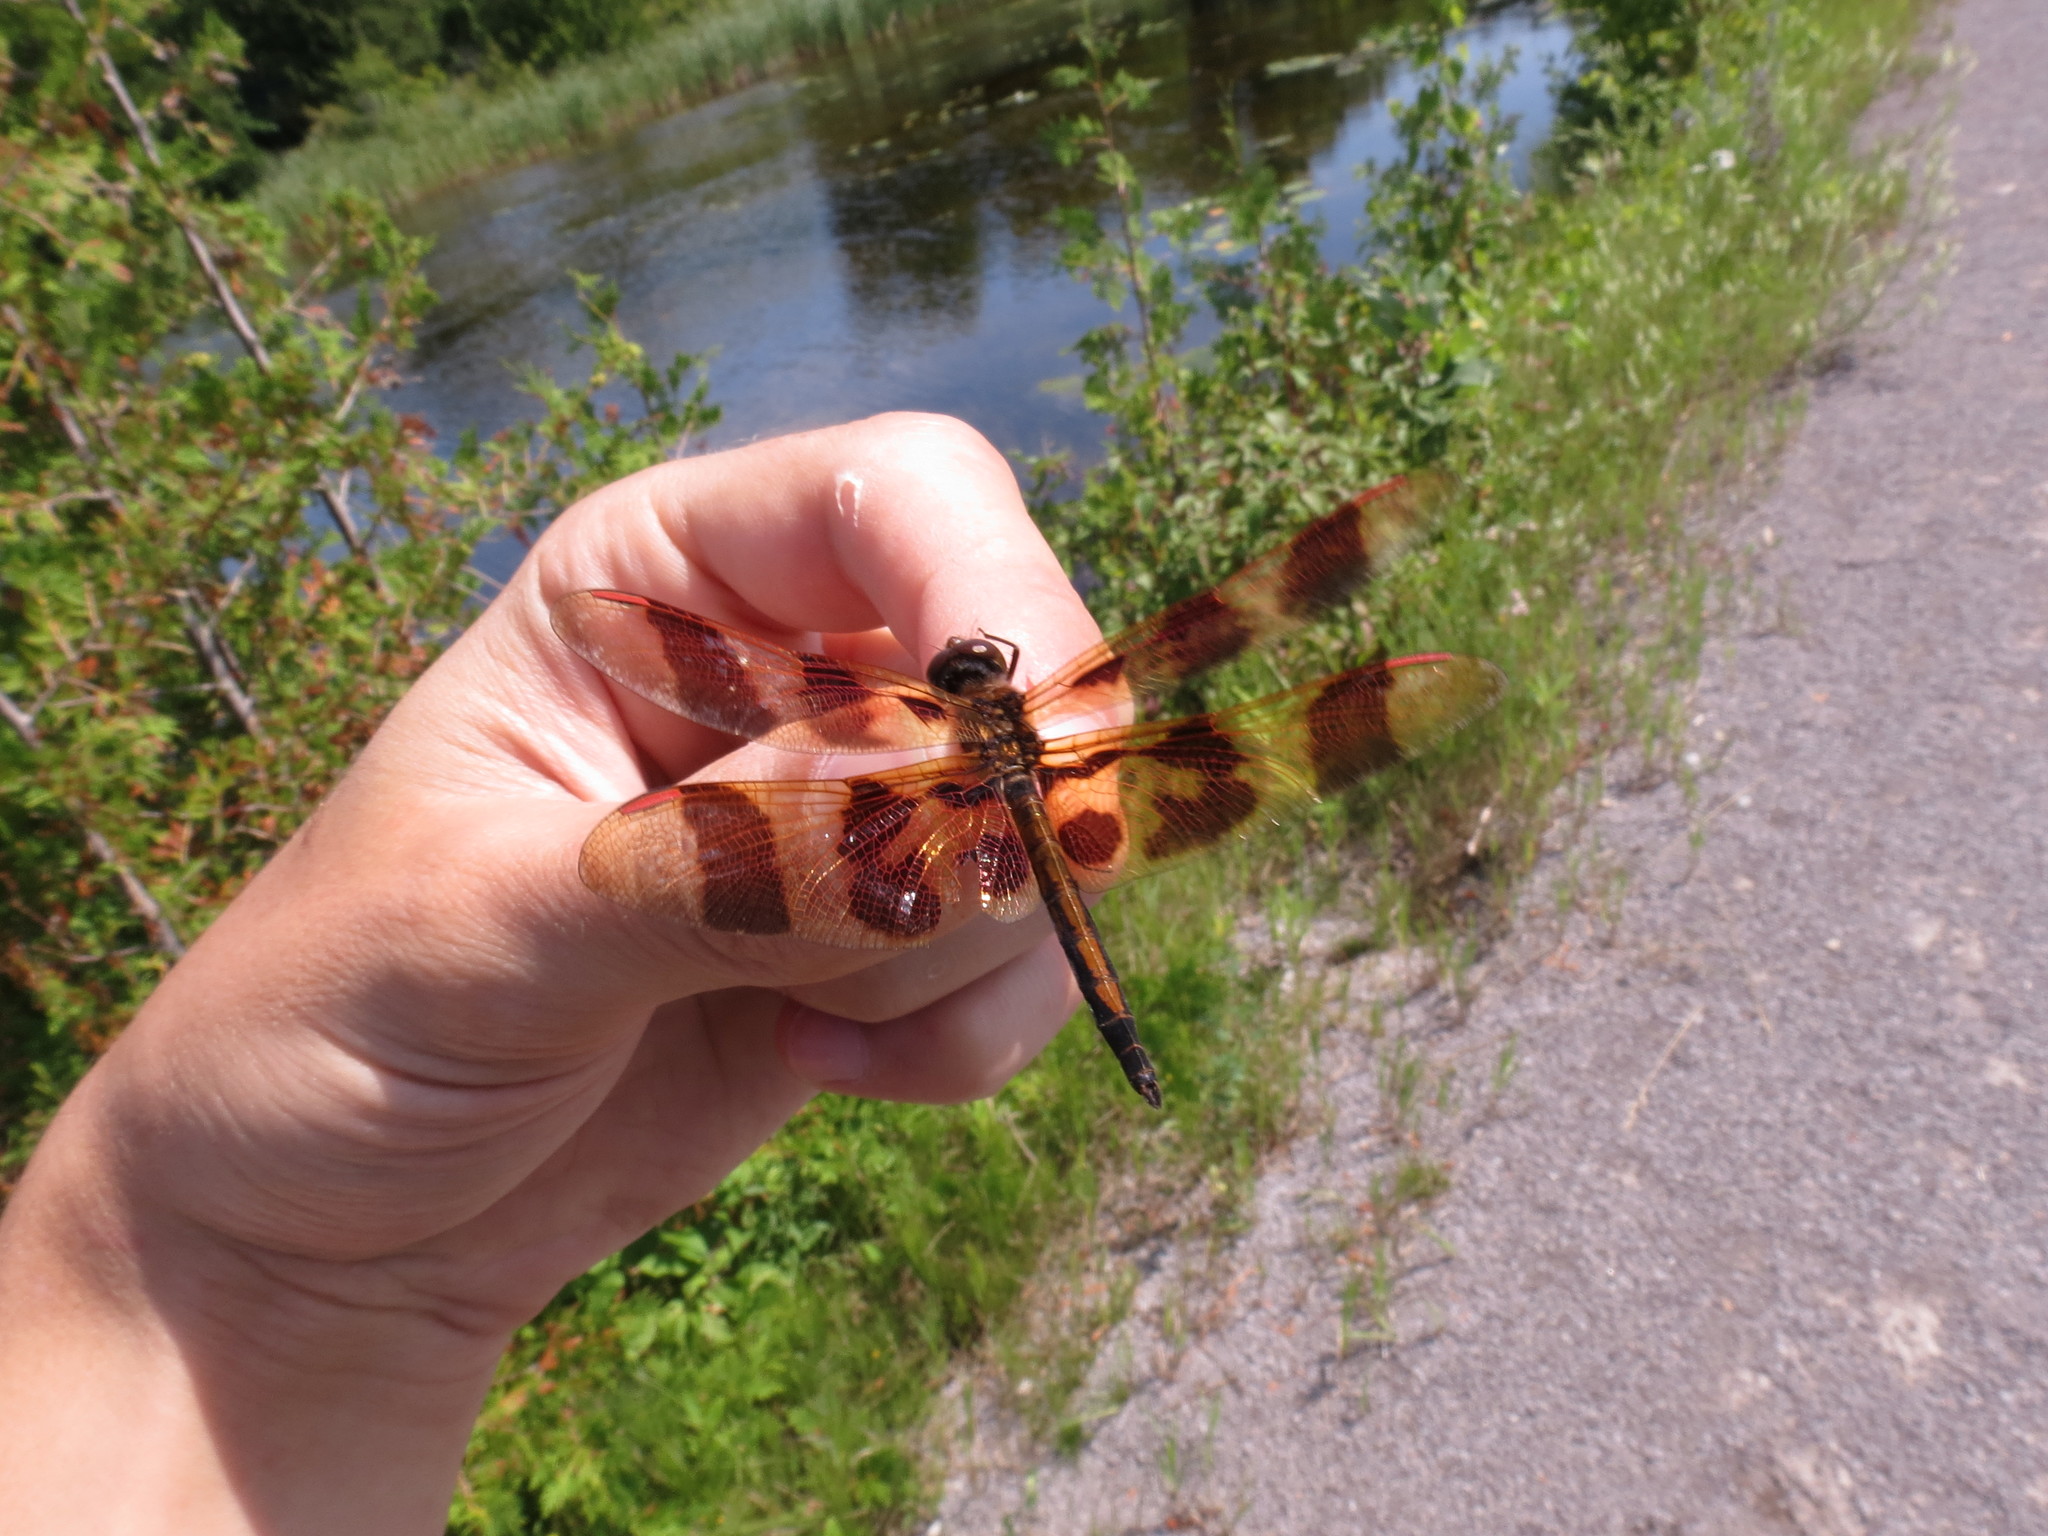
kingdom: Animalia
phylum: Arthropoda
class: Insecta
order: Odonata
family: Libellulidae
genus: Celithemis
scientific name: Celithemis eponina
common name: Halloween pennant
